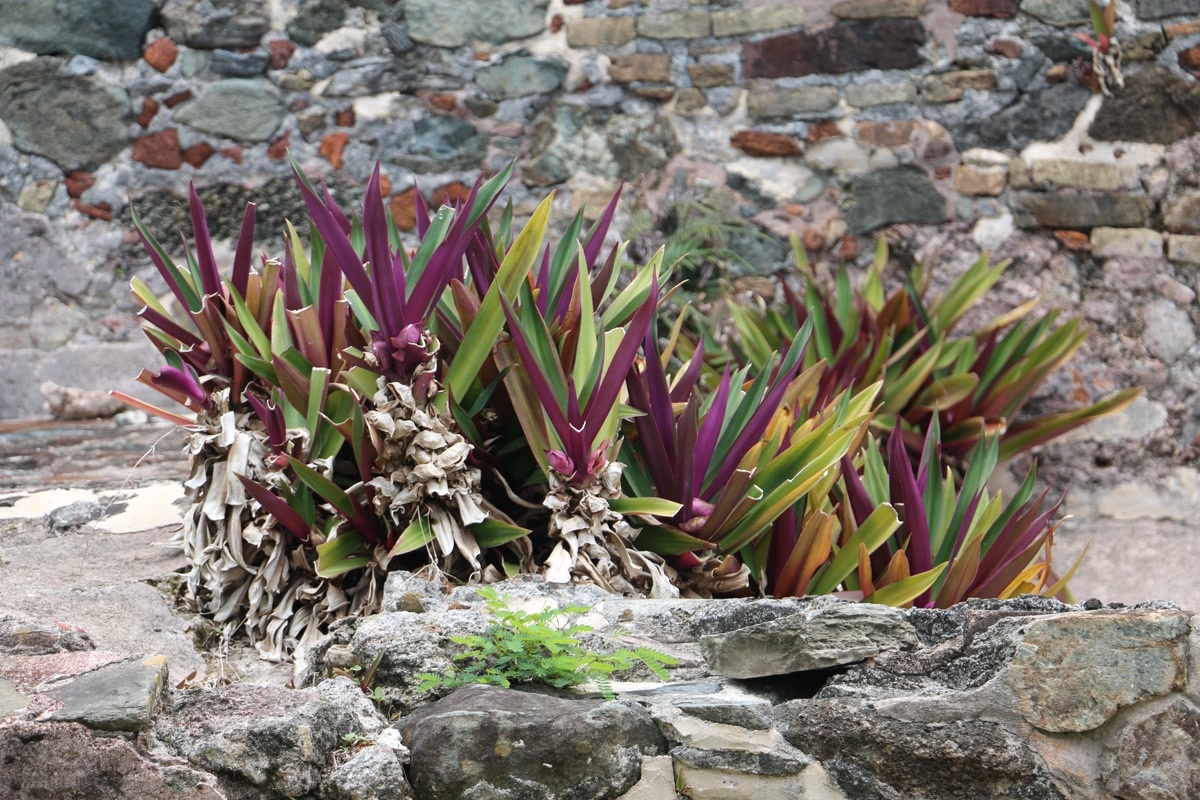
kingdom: Plantae
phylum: Tracheophyta
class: Liliopsida
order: Commelinales
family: Commelinaceae
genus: Tradescantia
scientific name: Tradescantia spathacea
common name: Boatlily
